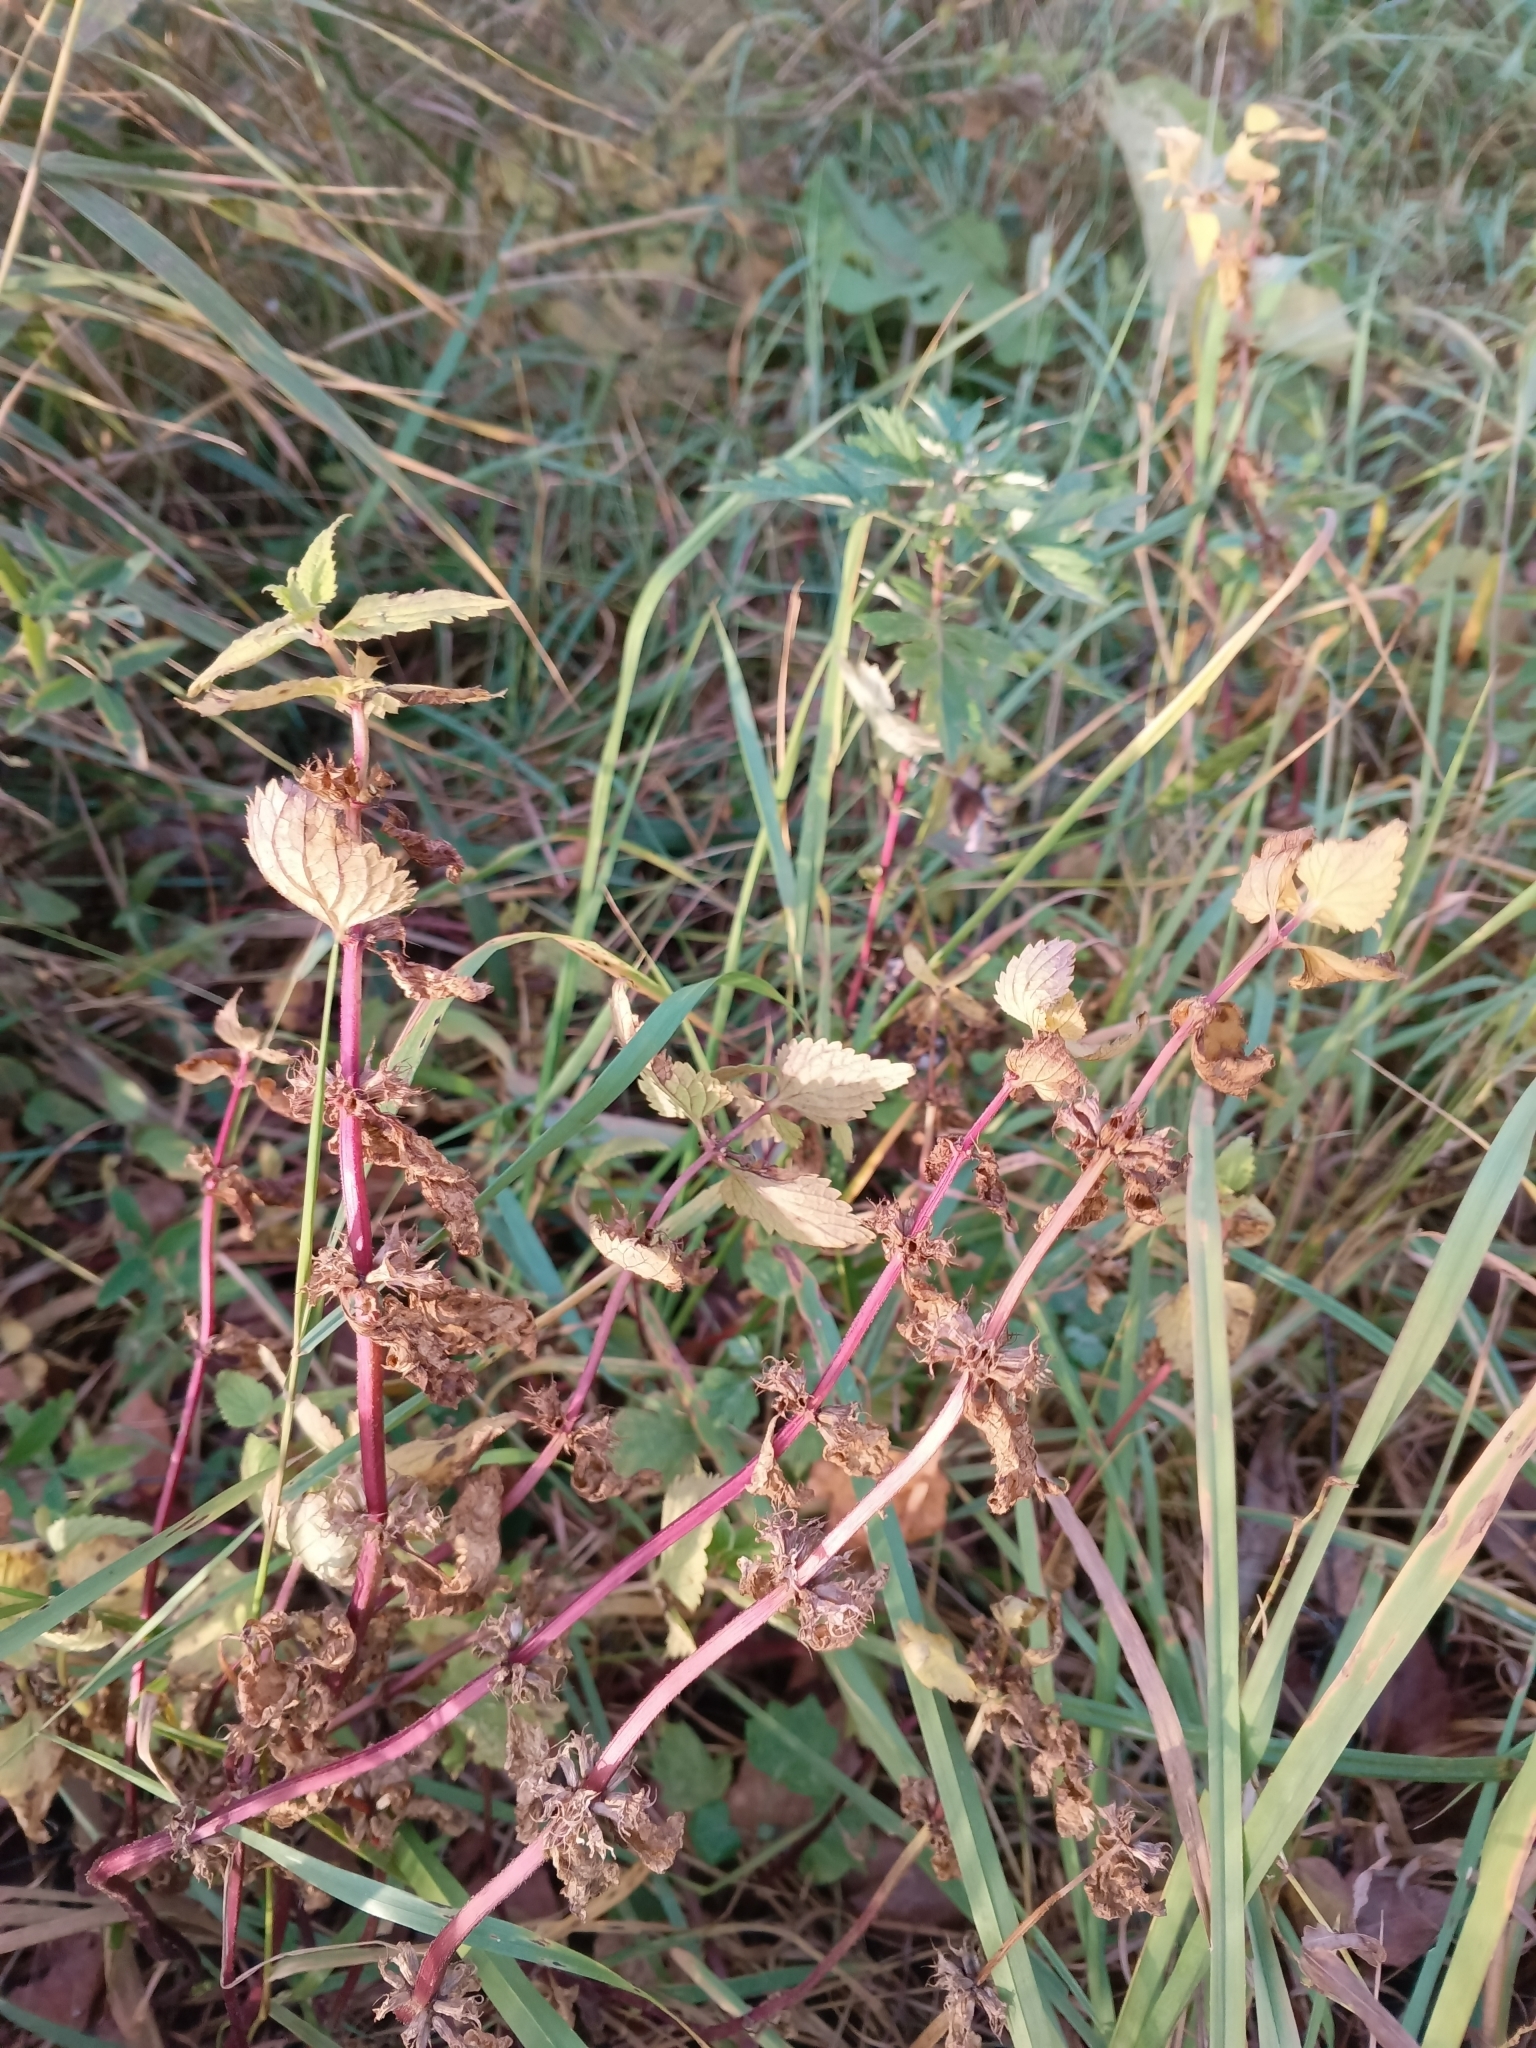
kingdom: Plantae
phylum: Tracheophyta
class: Magnoliopsida
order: Lamiales
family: Lamiaceae
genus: Lamium
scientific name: Lamium album
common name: White dead-nettle
